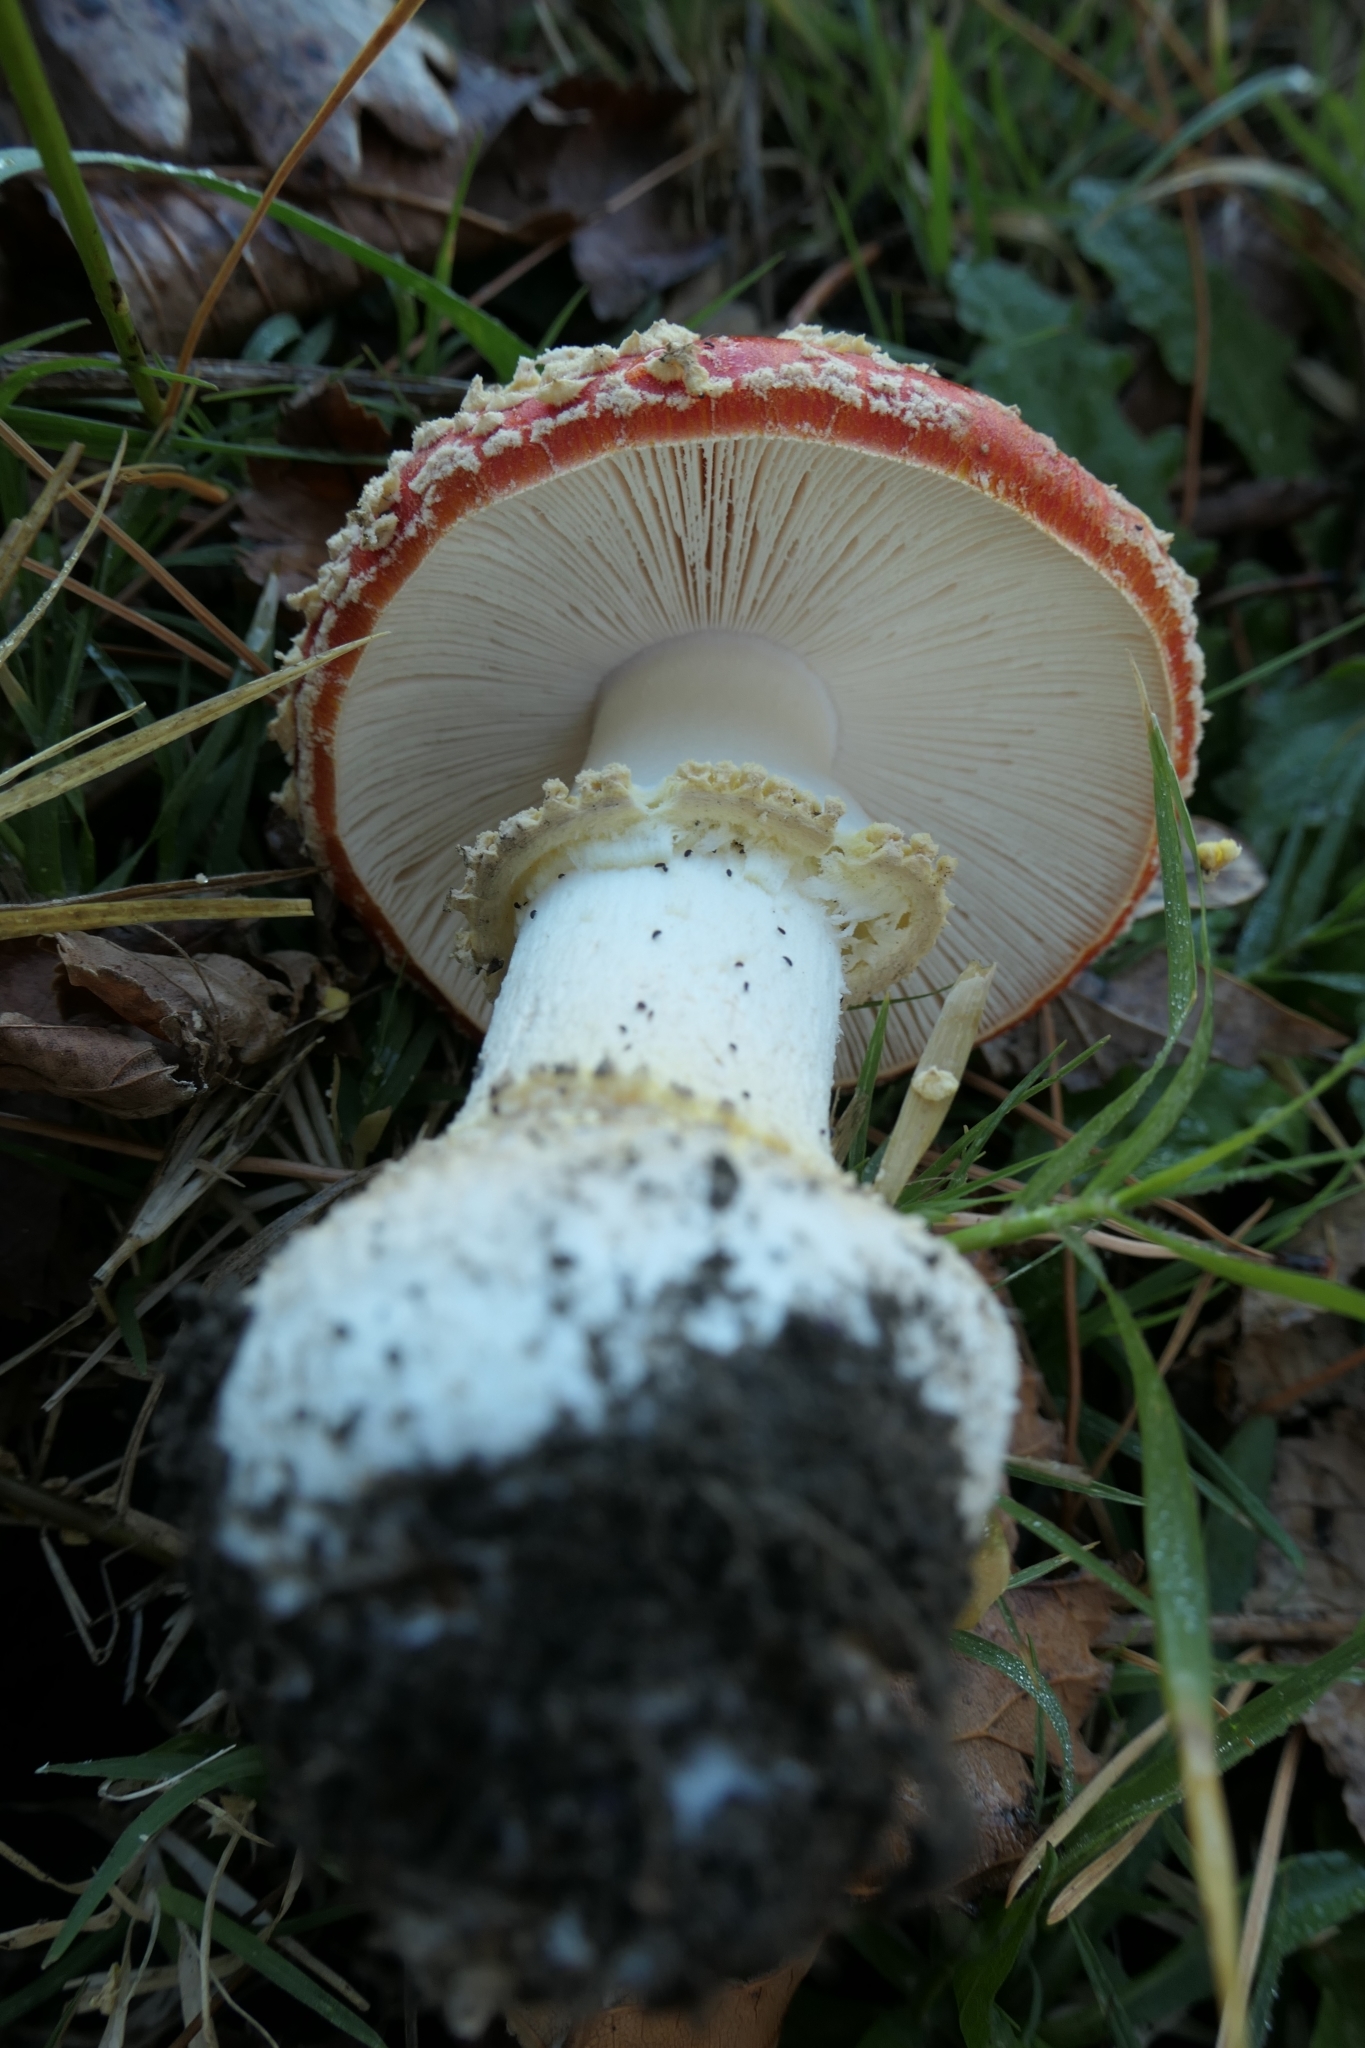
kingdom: Fungi
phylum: Basidiomycota
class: Agaricomycetes
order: Agaricales
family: Amanitaceae
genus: Amanita
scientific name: Amanita muscaria
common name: Fly agaric
